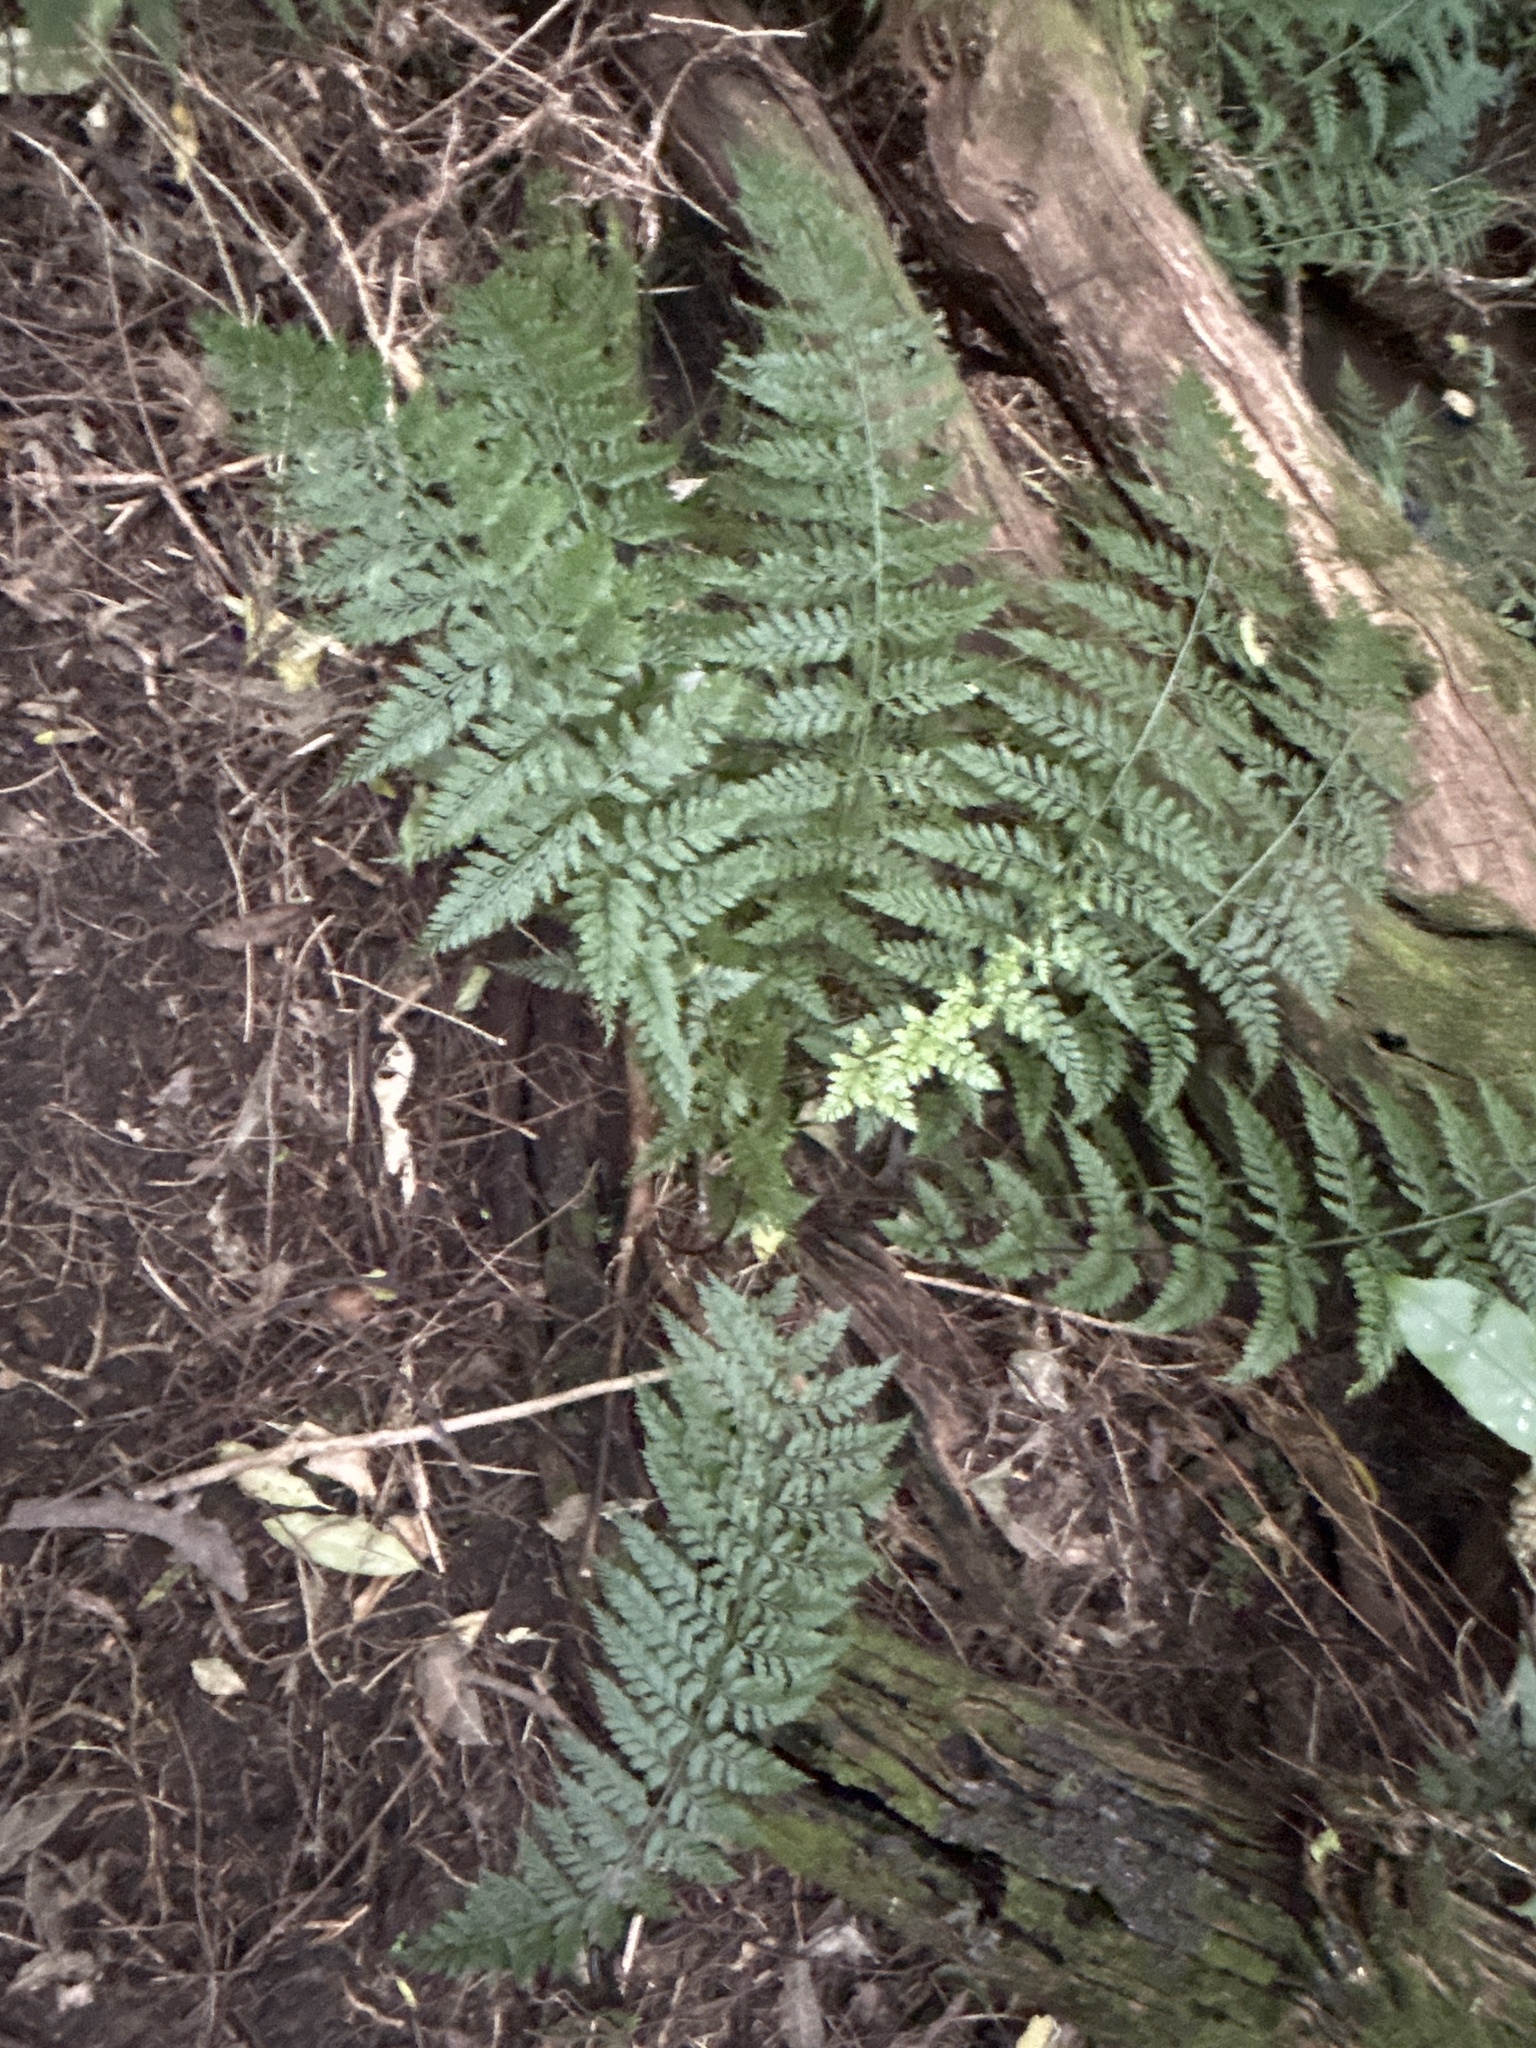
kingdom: Plantae
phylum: Tracheophyta
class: Polypodiopsida
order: Polypodiales
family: Aspleniaceae
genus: Asplenium
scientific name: Asplenium
